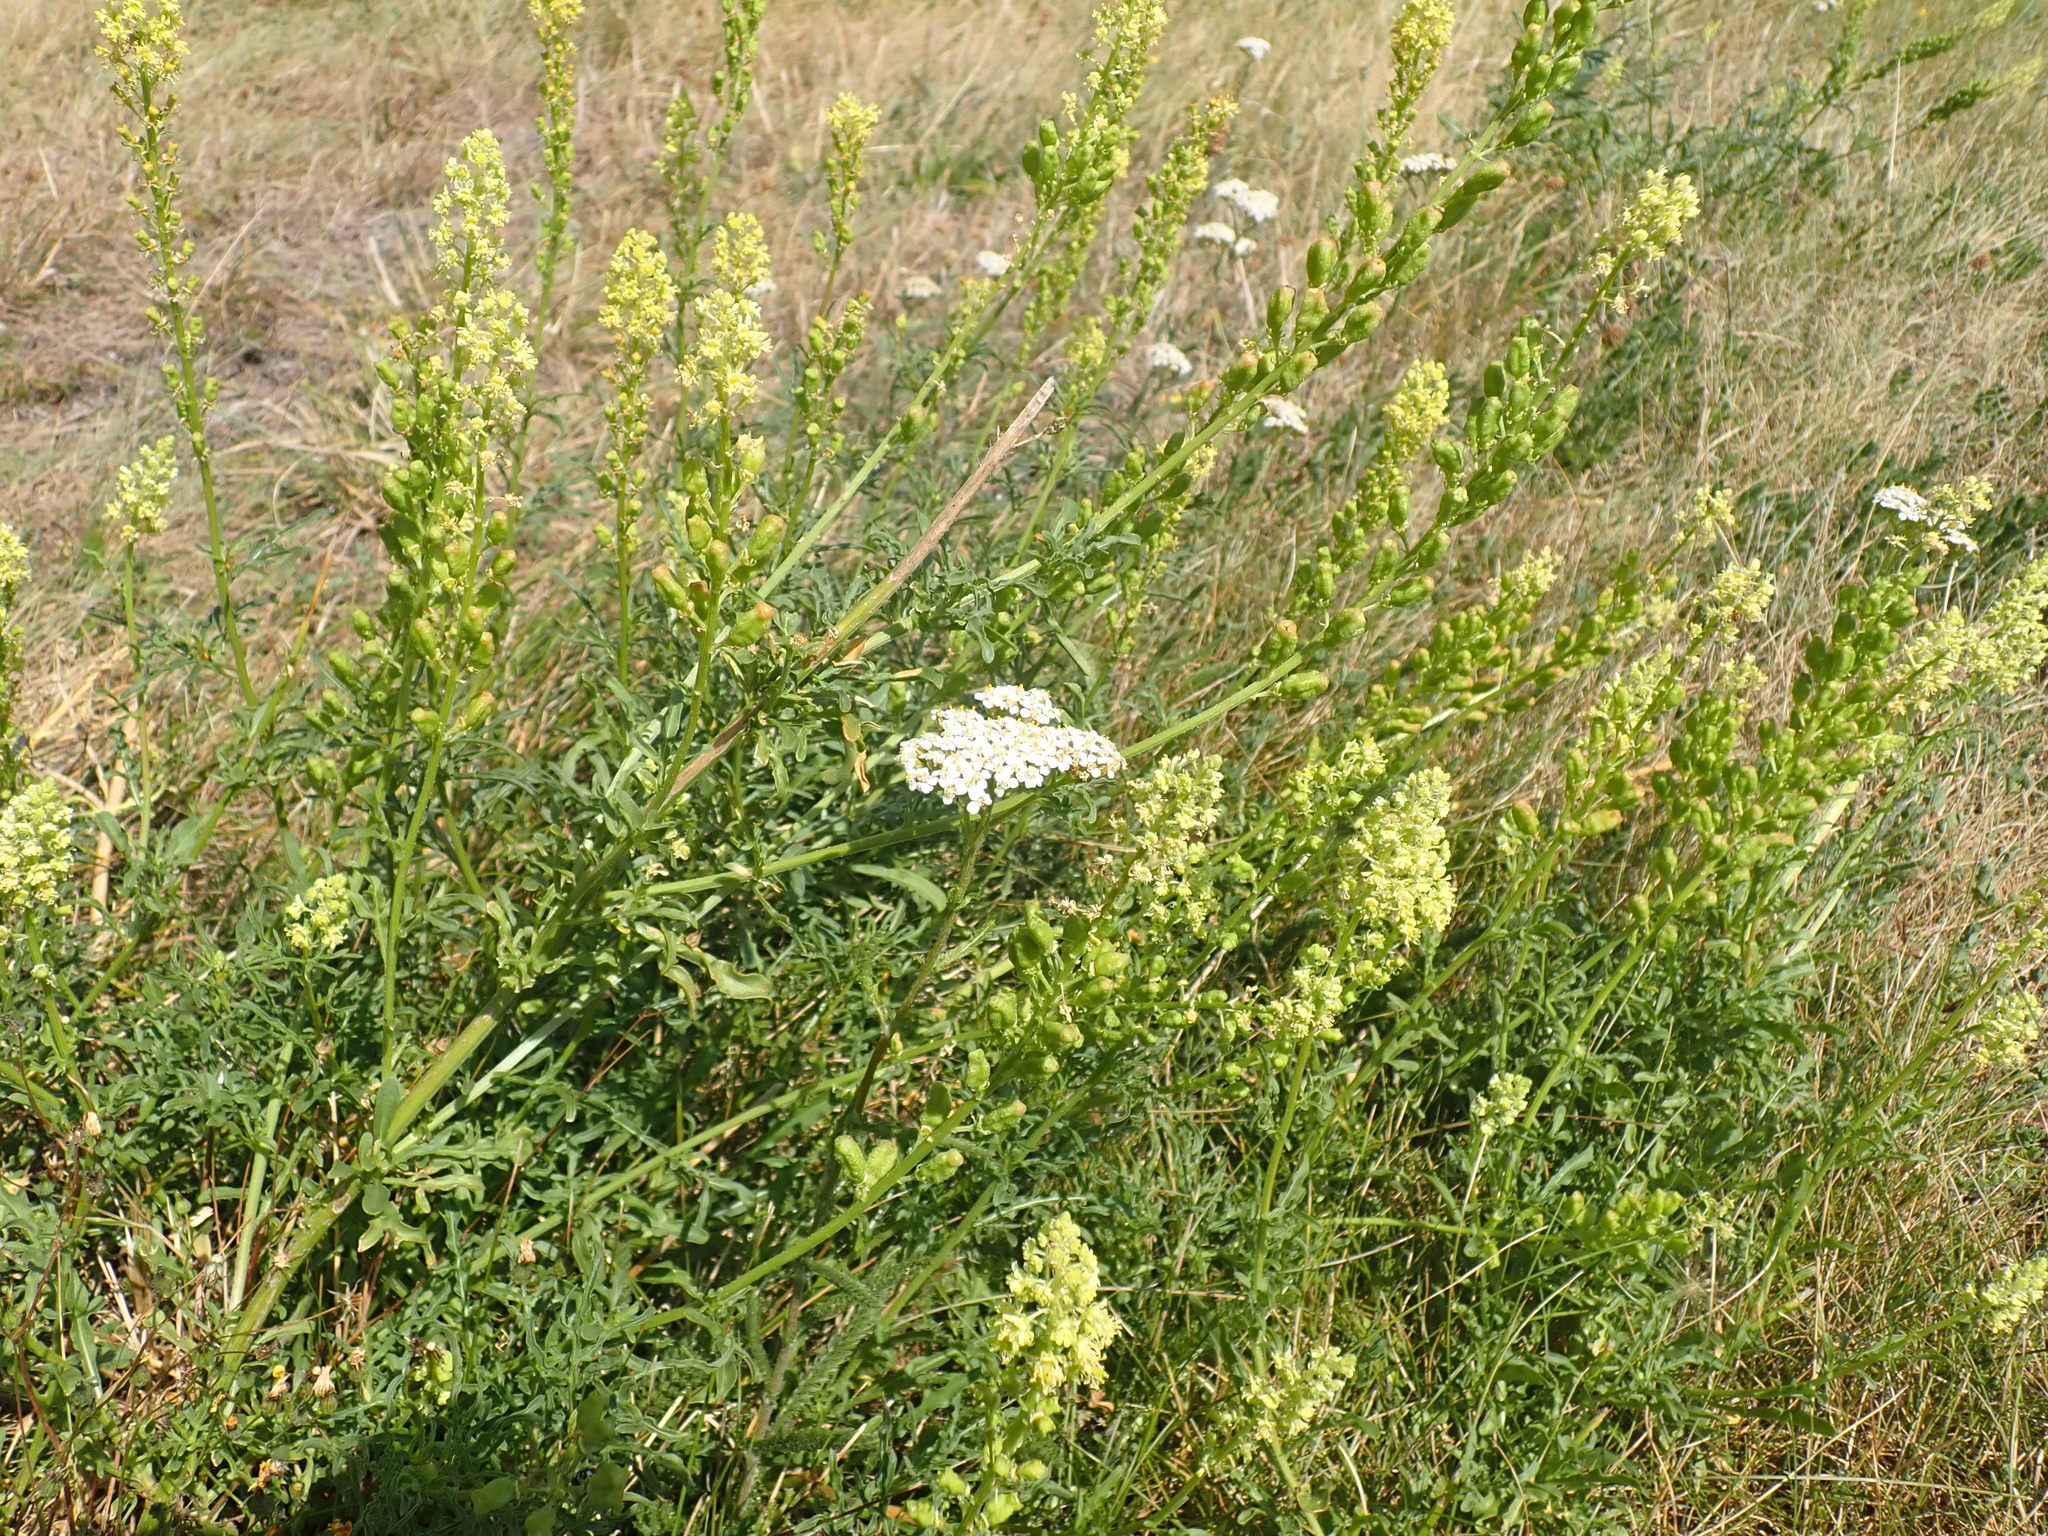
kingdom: Plantae
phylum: Tracheophyta
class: Magnoliopsida
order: Brassicales
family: Resedaceae
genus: Reseda
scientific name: Reseda lutea
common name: Wild mignonette
